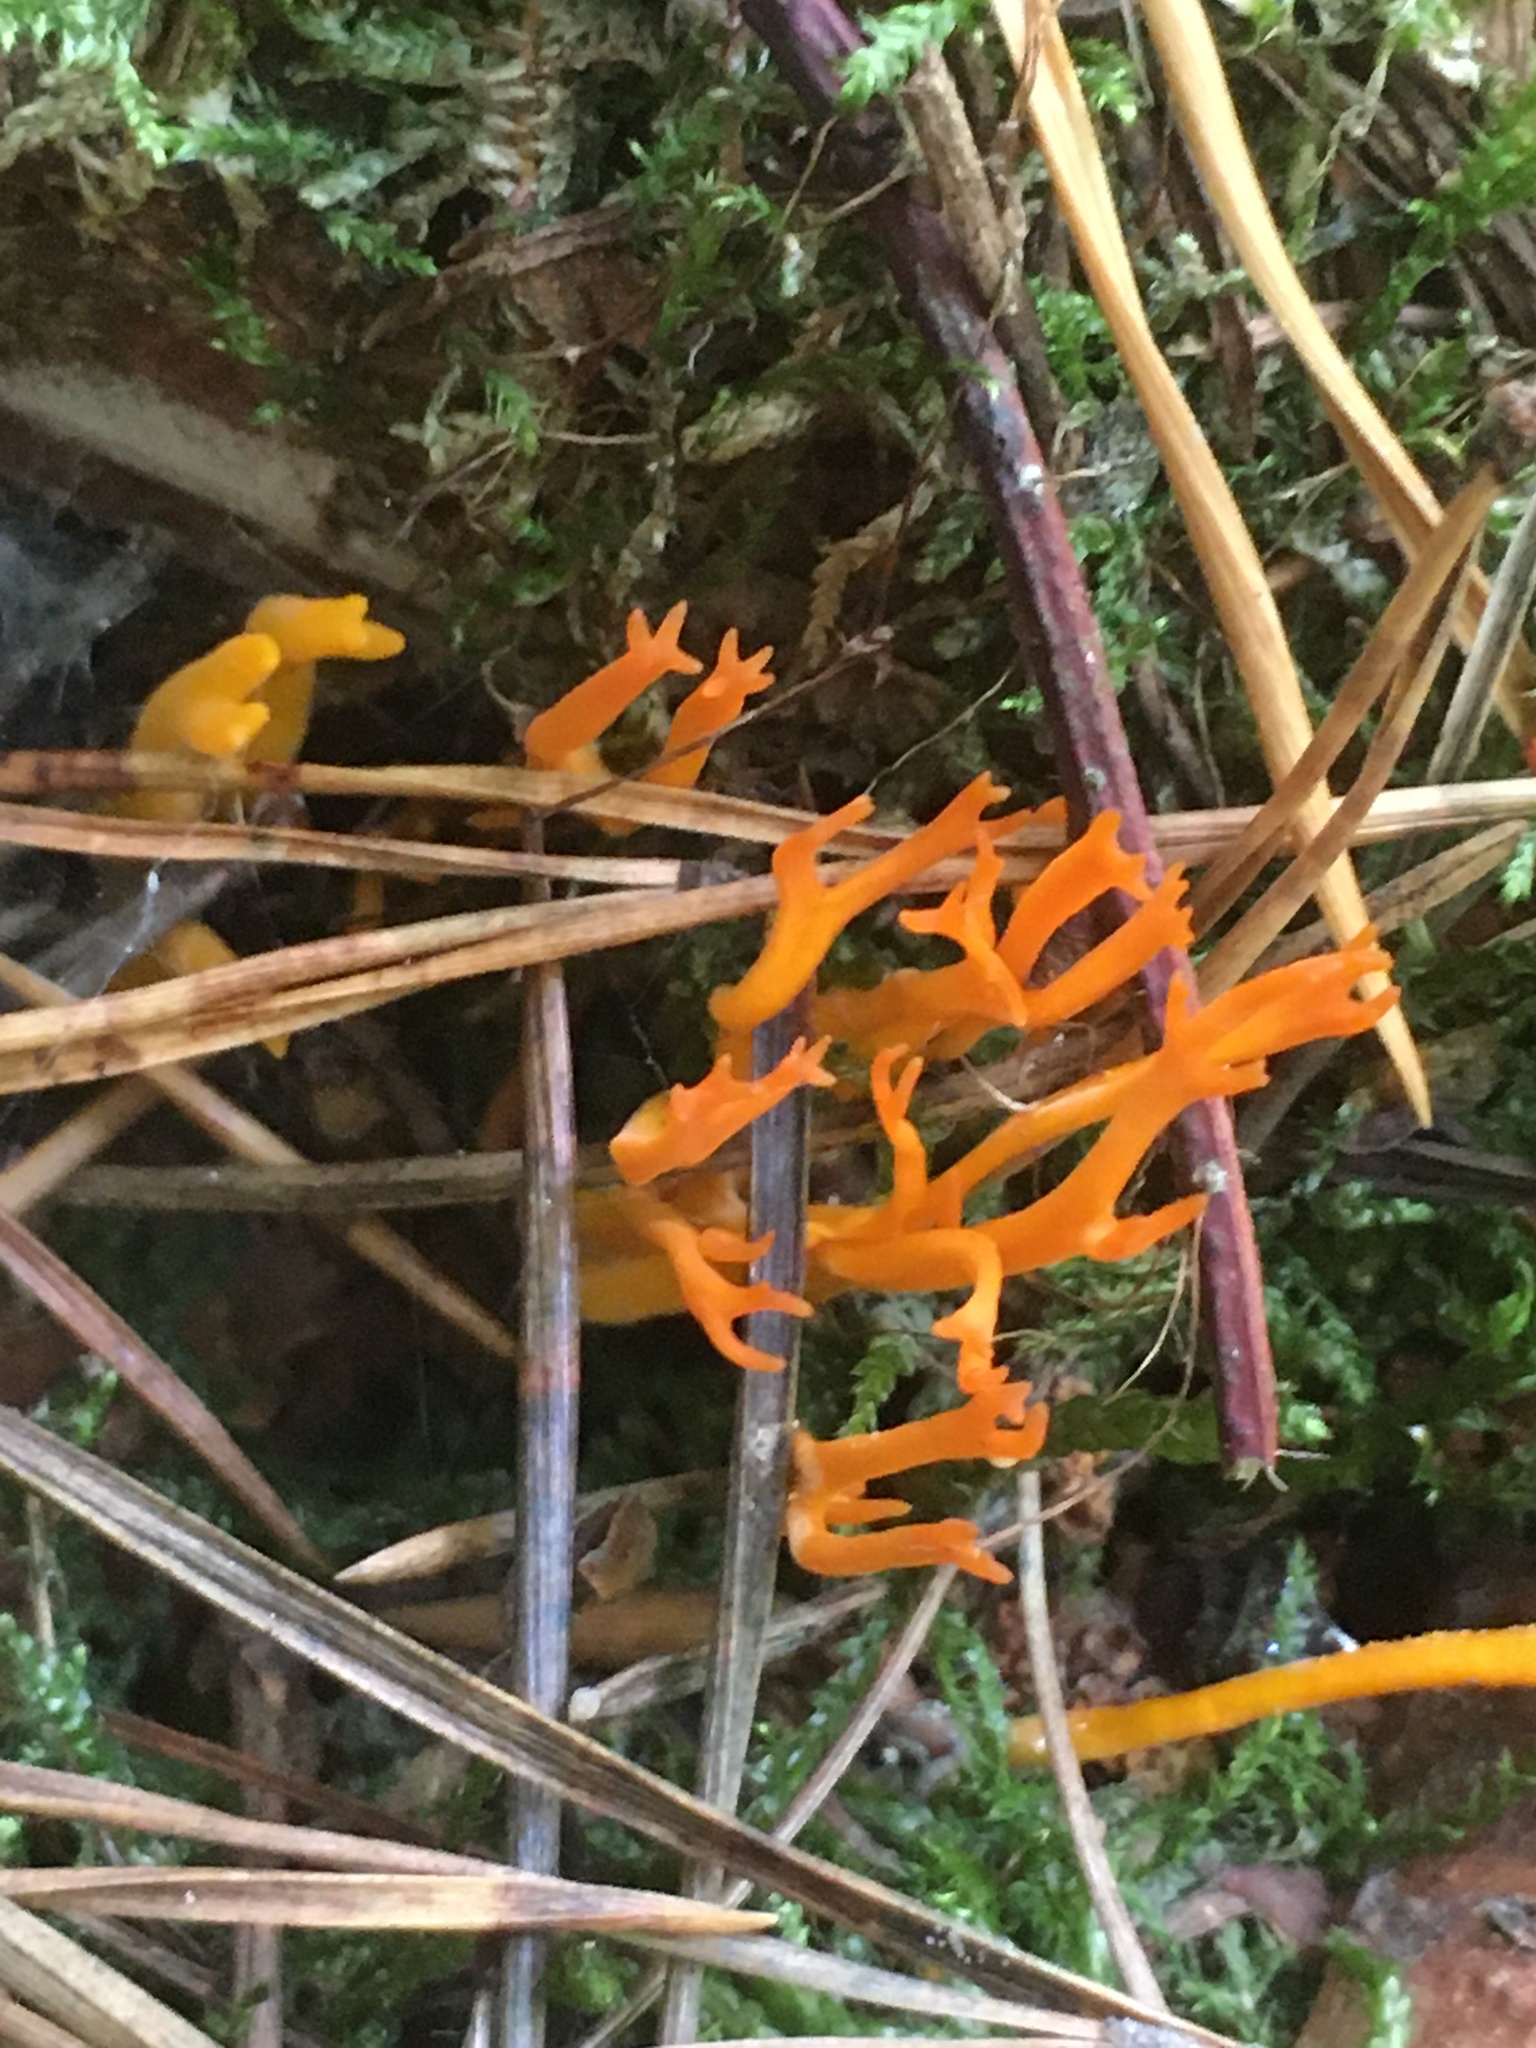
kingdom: Fungi
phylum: Basidiomycota
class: Dacrymycetes
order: Dacrymycetales
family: Dacrymycetaceae
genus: Calocera
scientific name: Calocera viscosa
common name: Yellow stagshorn
